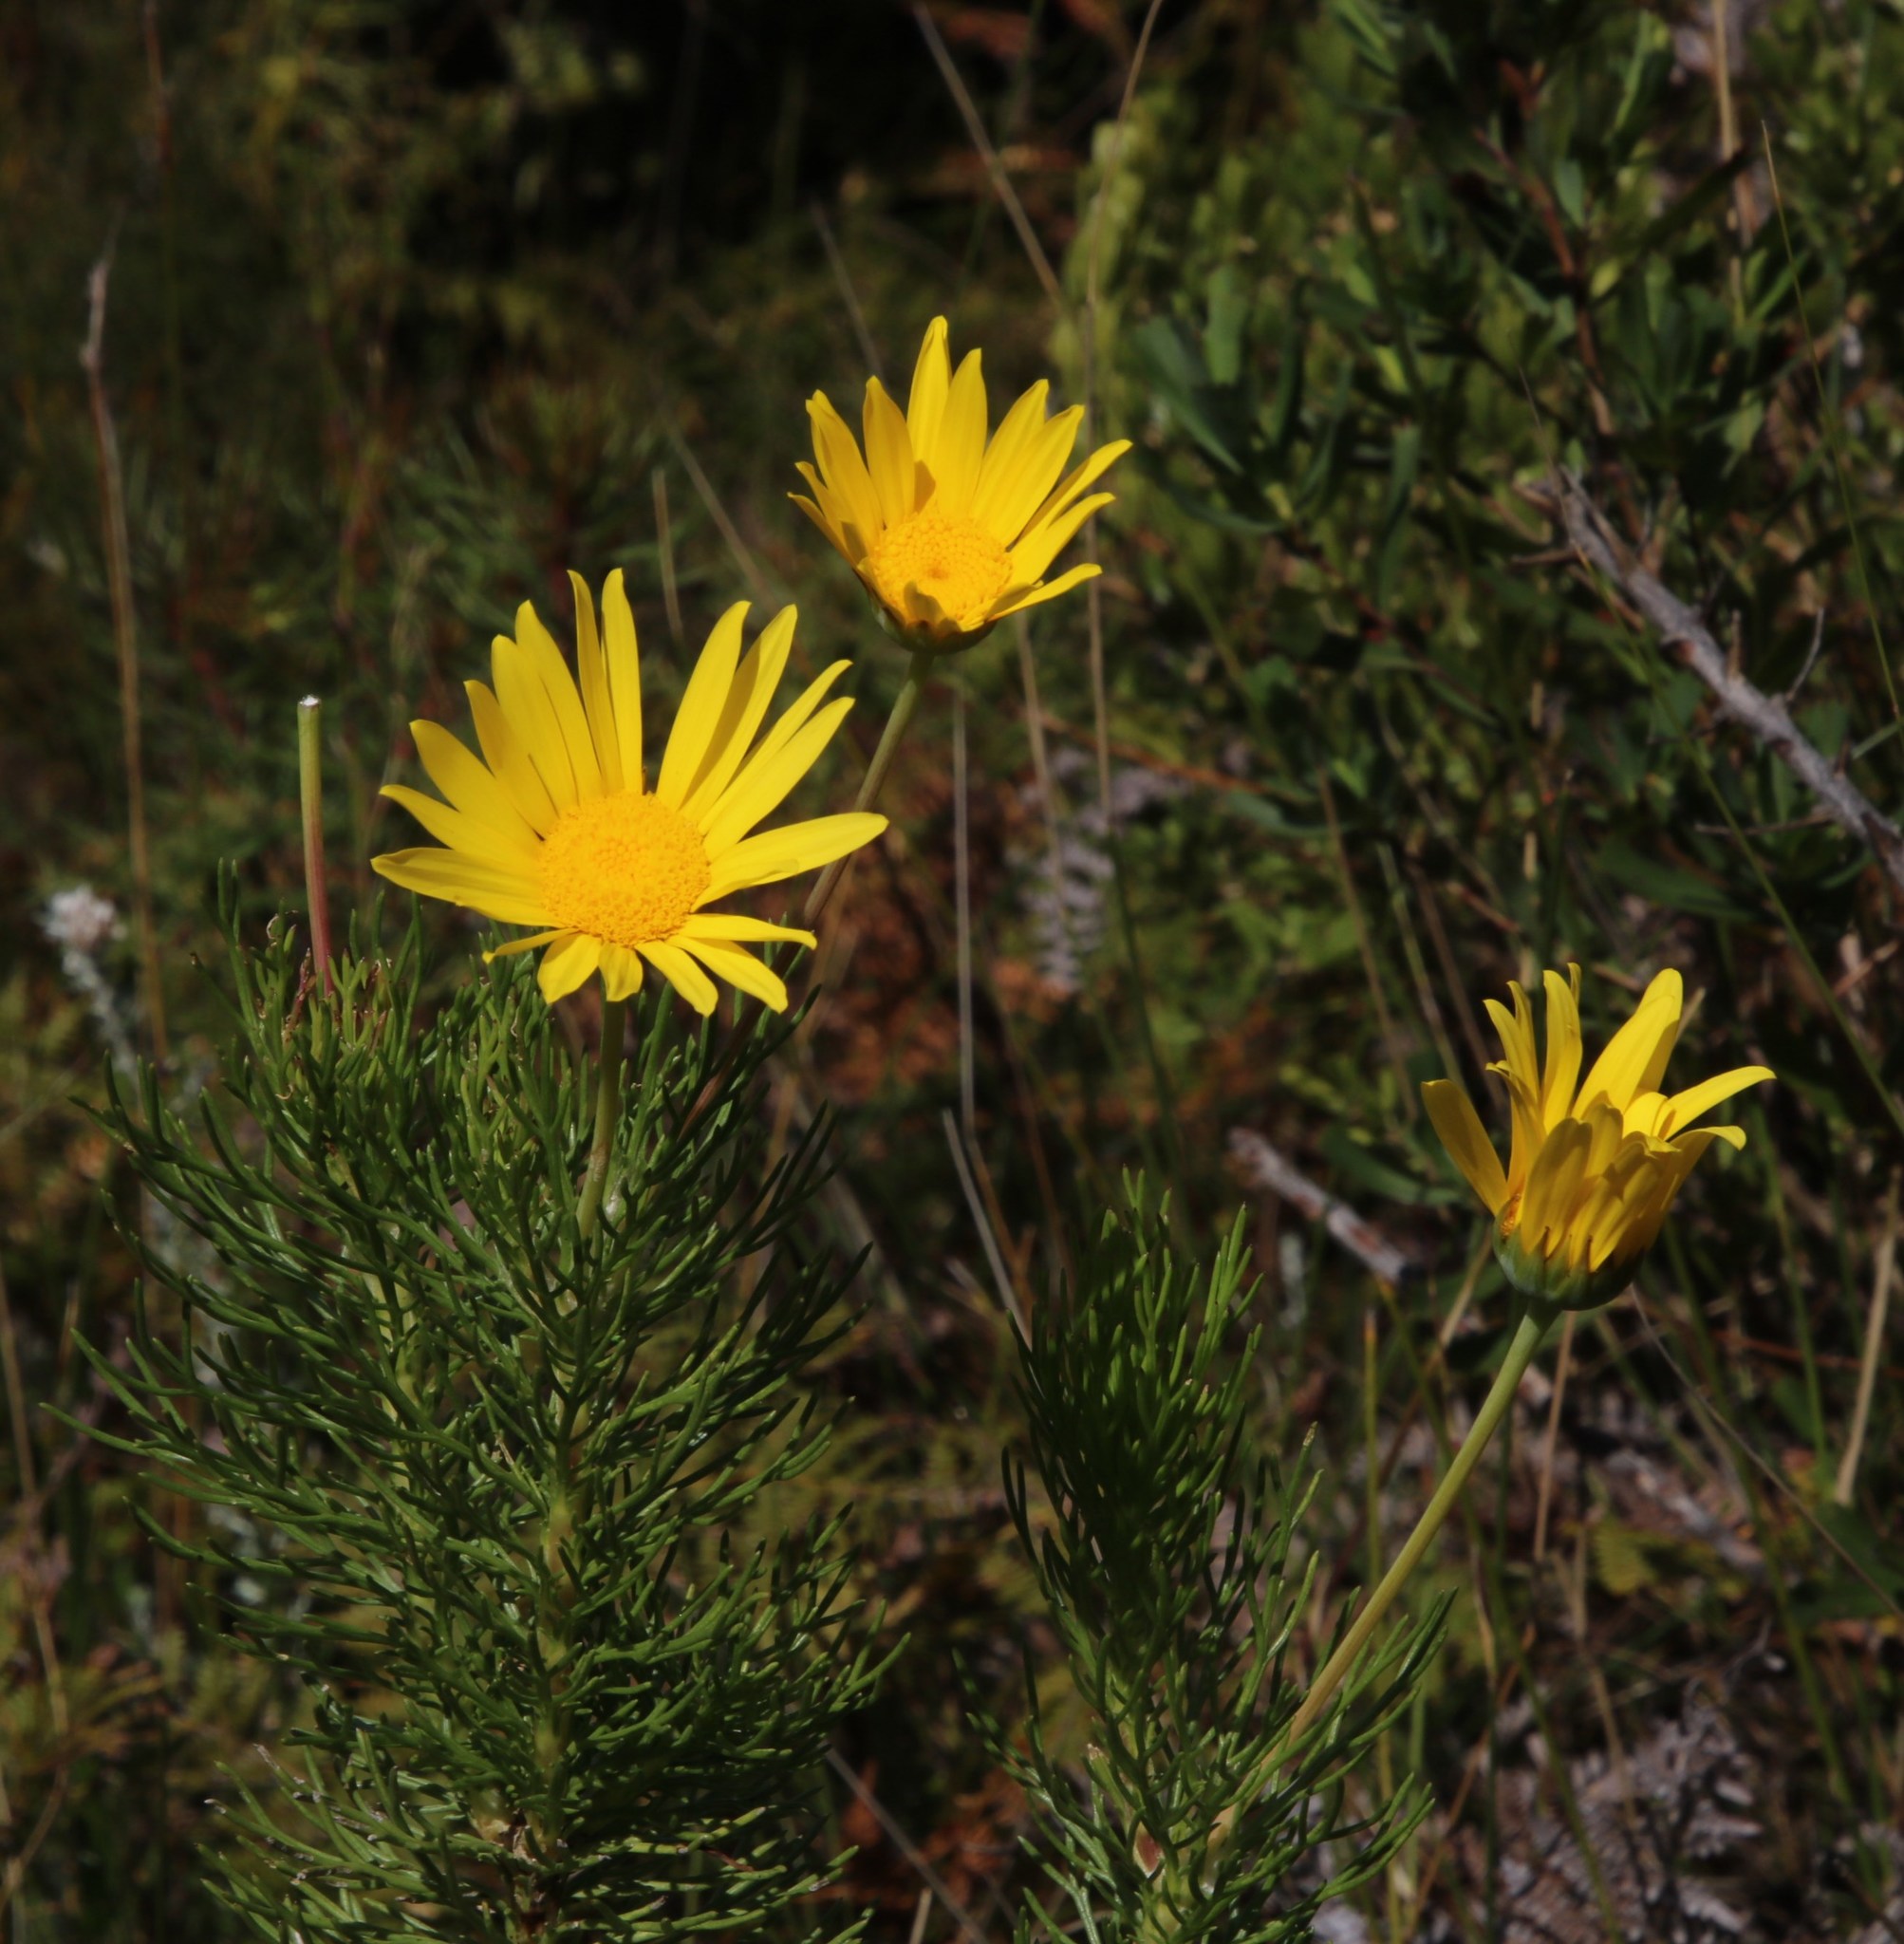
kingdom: Plantae
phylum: Tracheophyta
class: Magnoliopsida
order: Asterales
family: Asteraceae
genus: Euryops
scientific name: Euryops abrotanifolius
